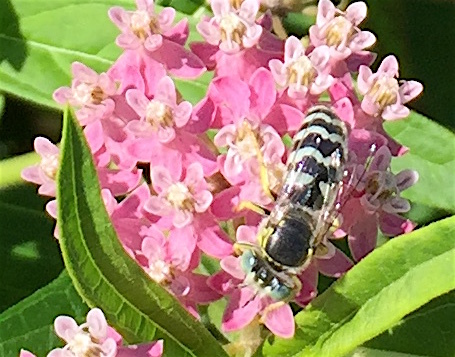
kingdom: Animalia
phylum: Arthropoda
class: Insecta
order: Hymenoptera
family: Crabronidae
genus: Bembix
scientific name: Bembix americana
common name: American sand wasp
